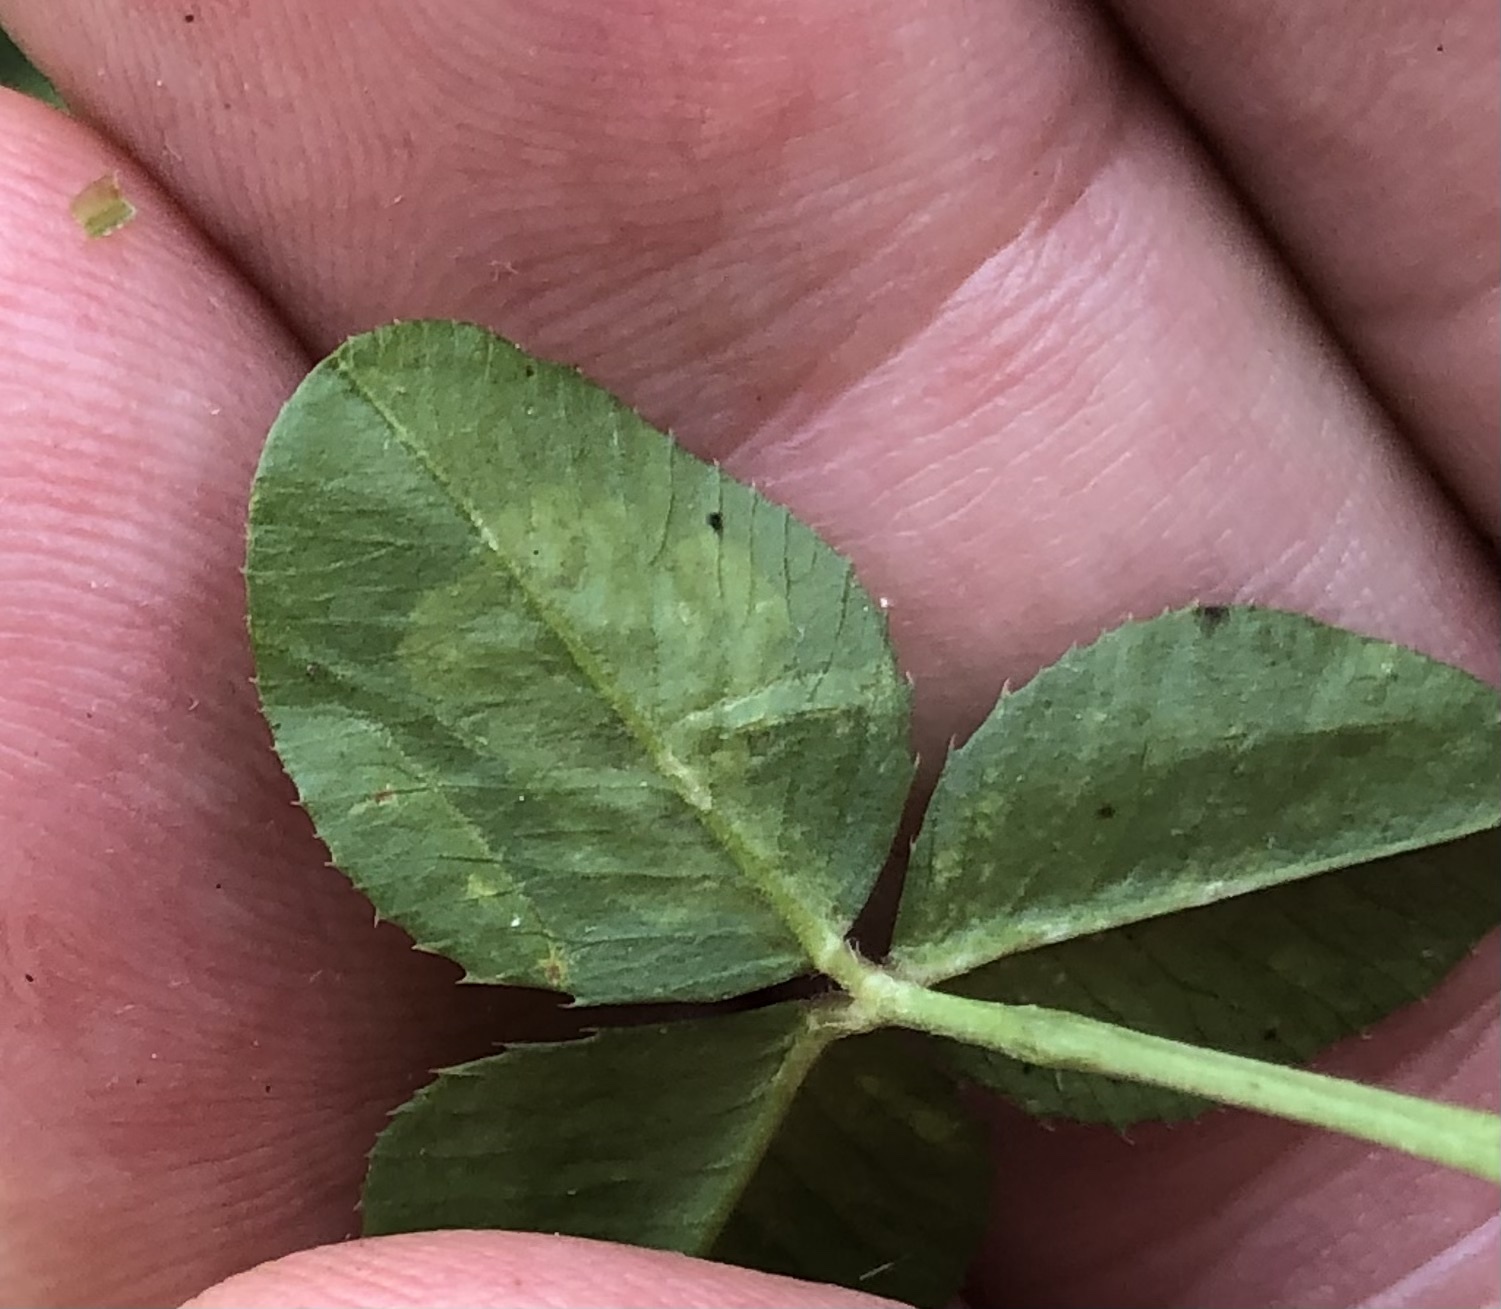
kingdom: Animalia
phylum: Arthropoda
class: Insecta
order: Diptera
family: Agromyzidae
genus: Liriomyza
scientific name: Liriomyza fricki
